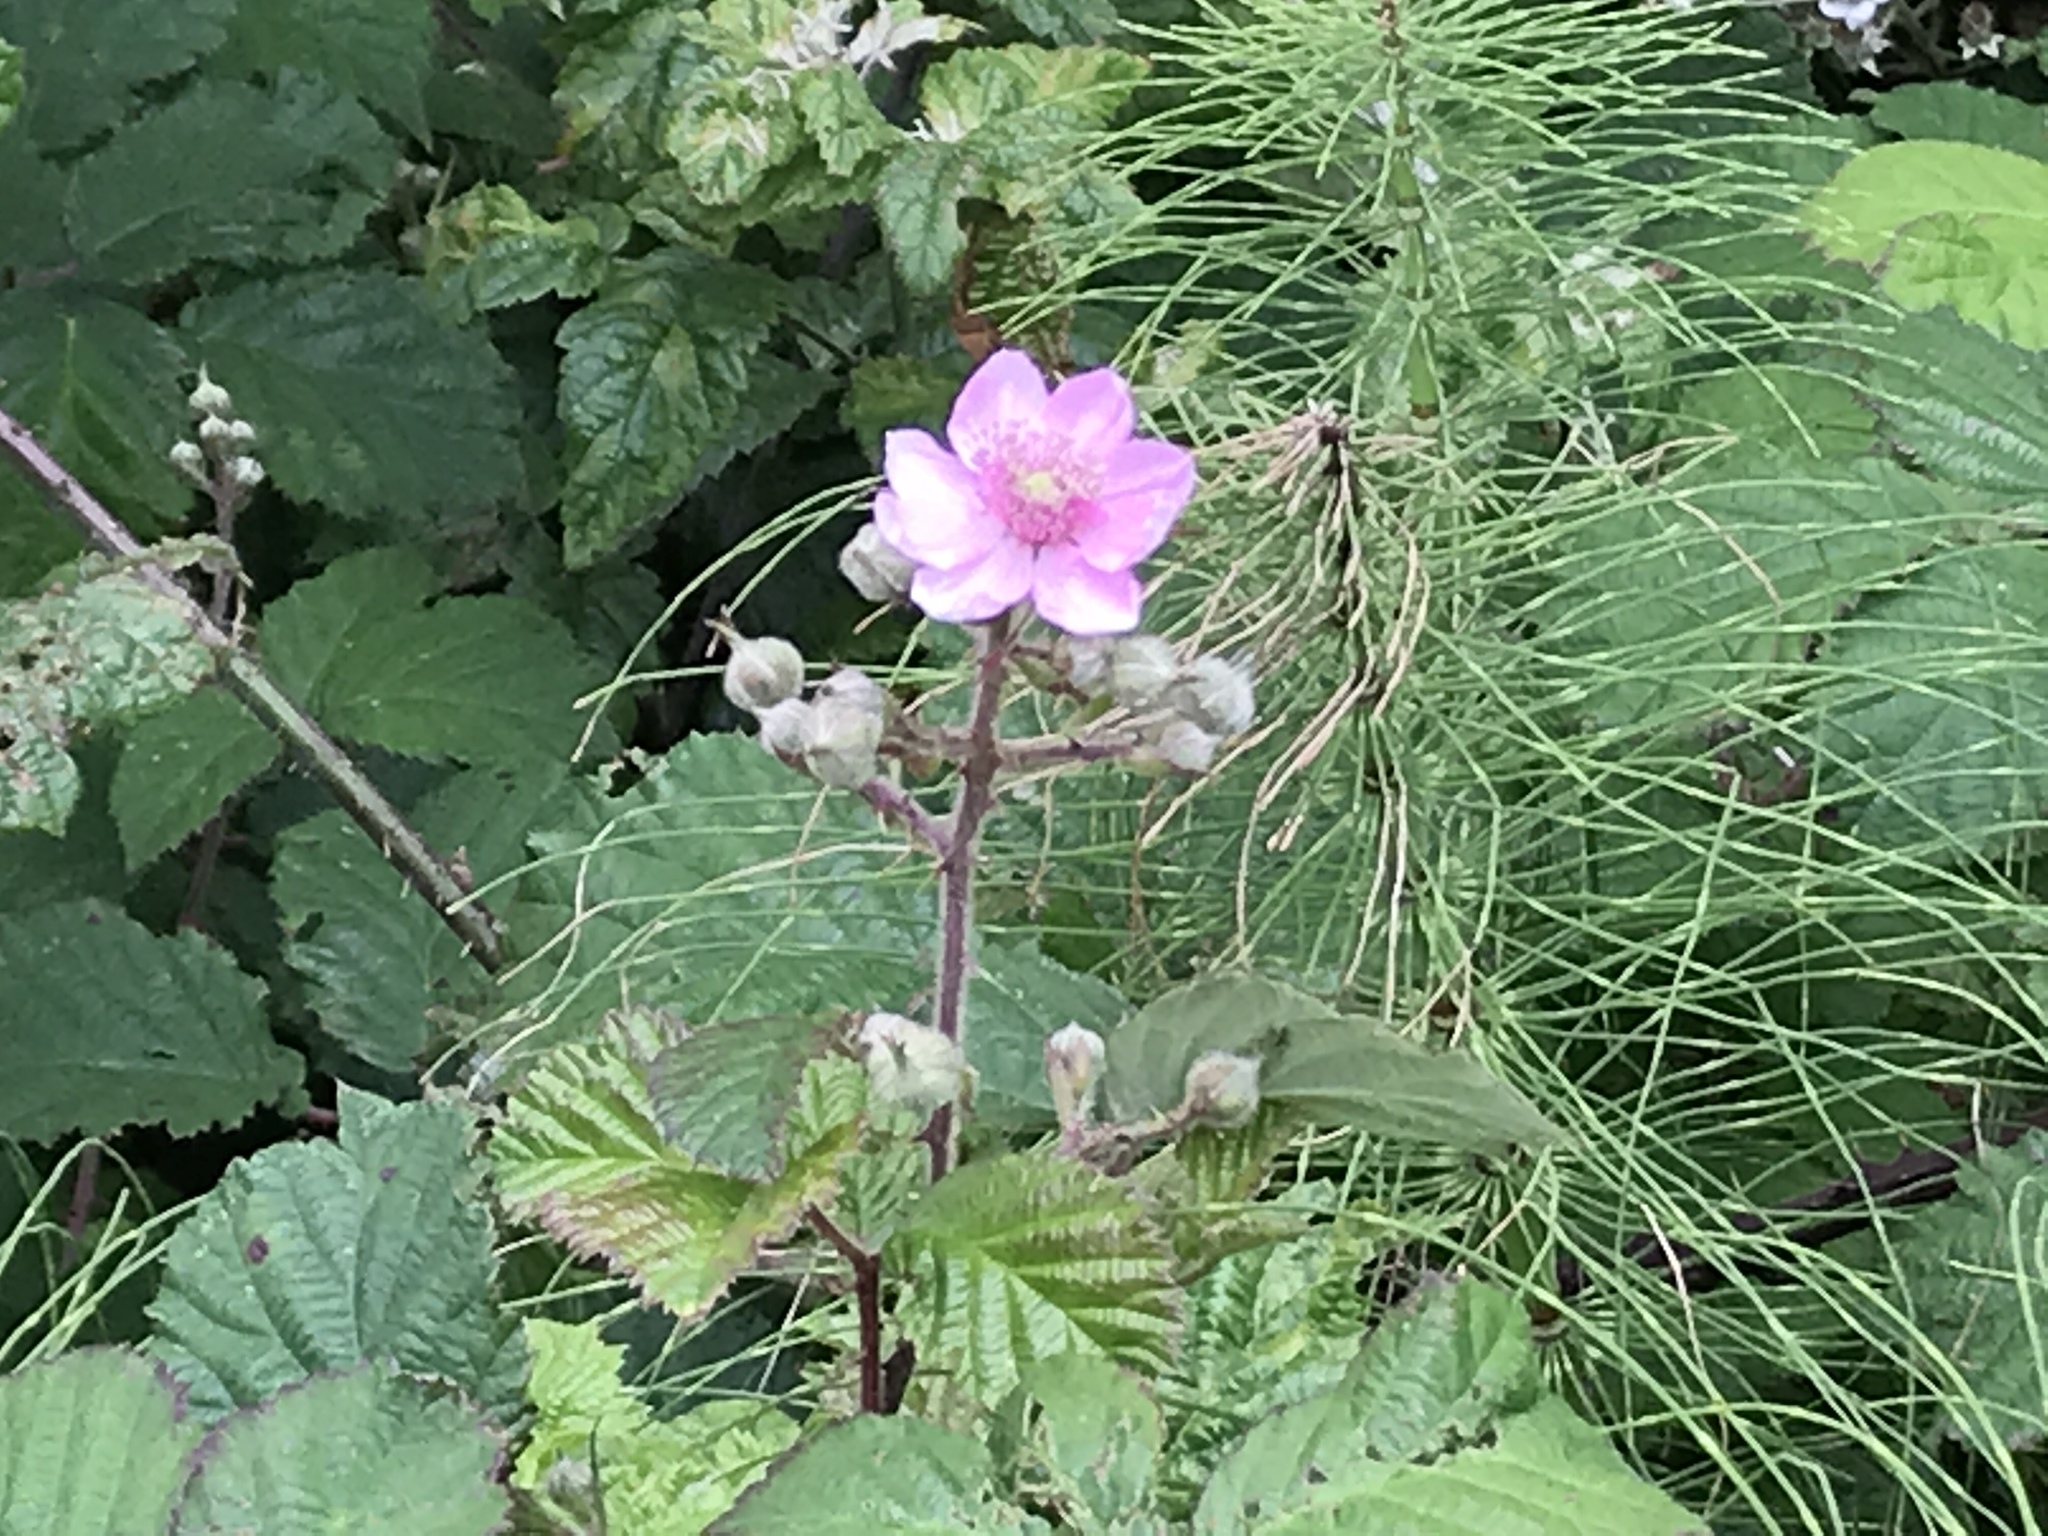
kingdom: Plantae
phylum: Tracheophyta
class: Magnoliopsida
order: Rosales
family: Rosaceae
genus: Rubus
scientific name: Rubus vestitus
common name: European blackberry
